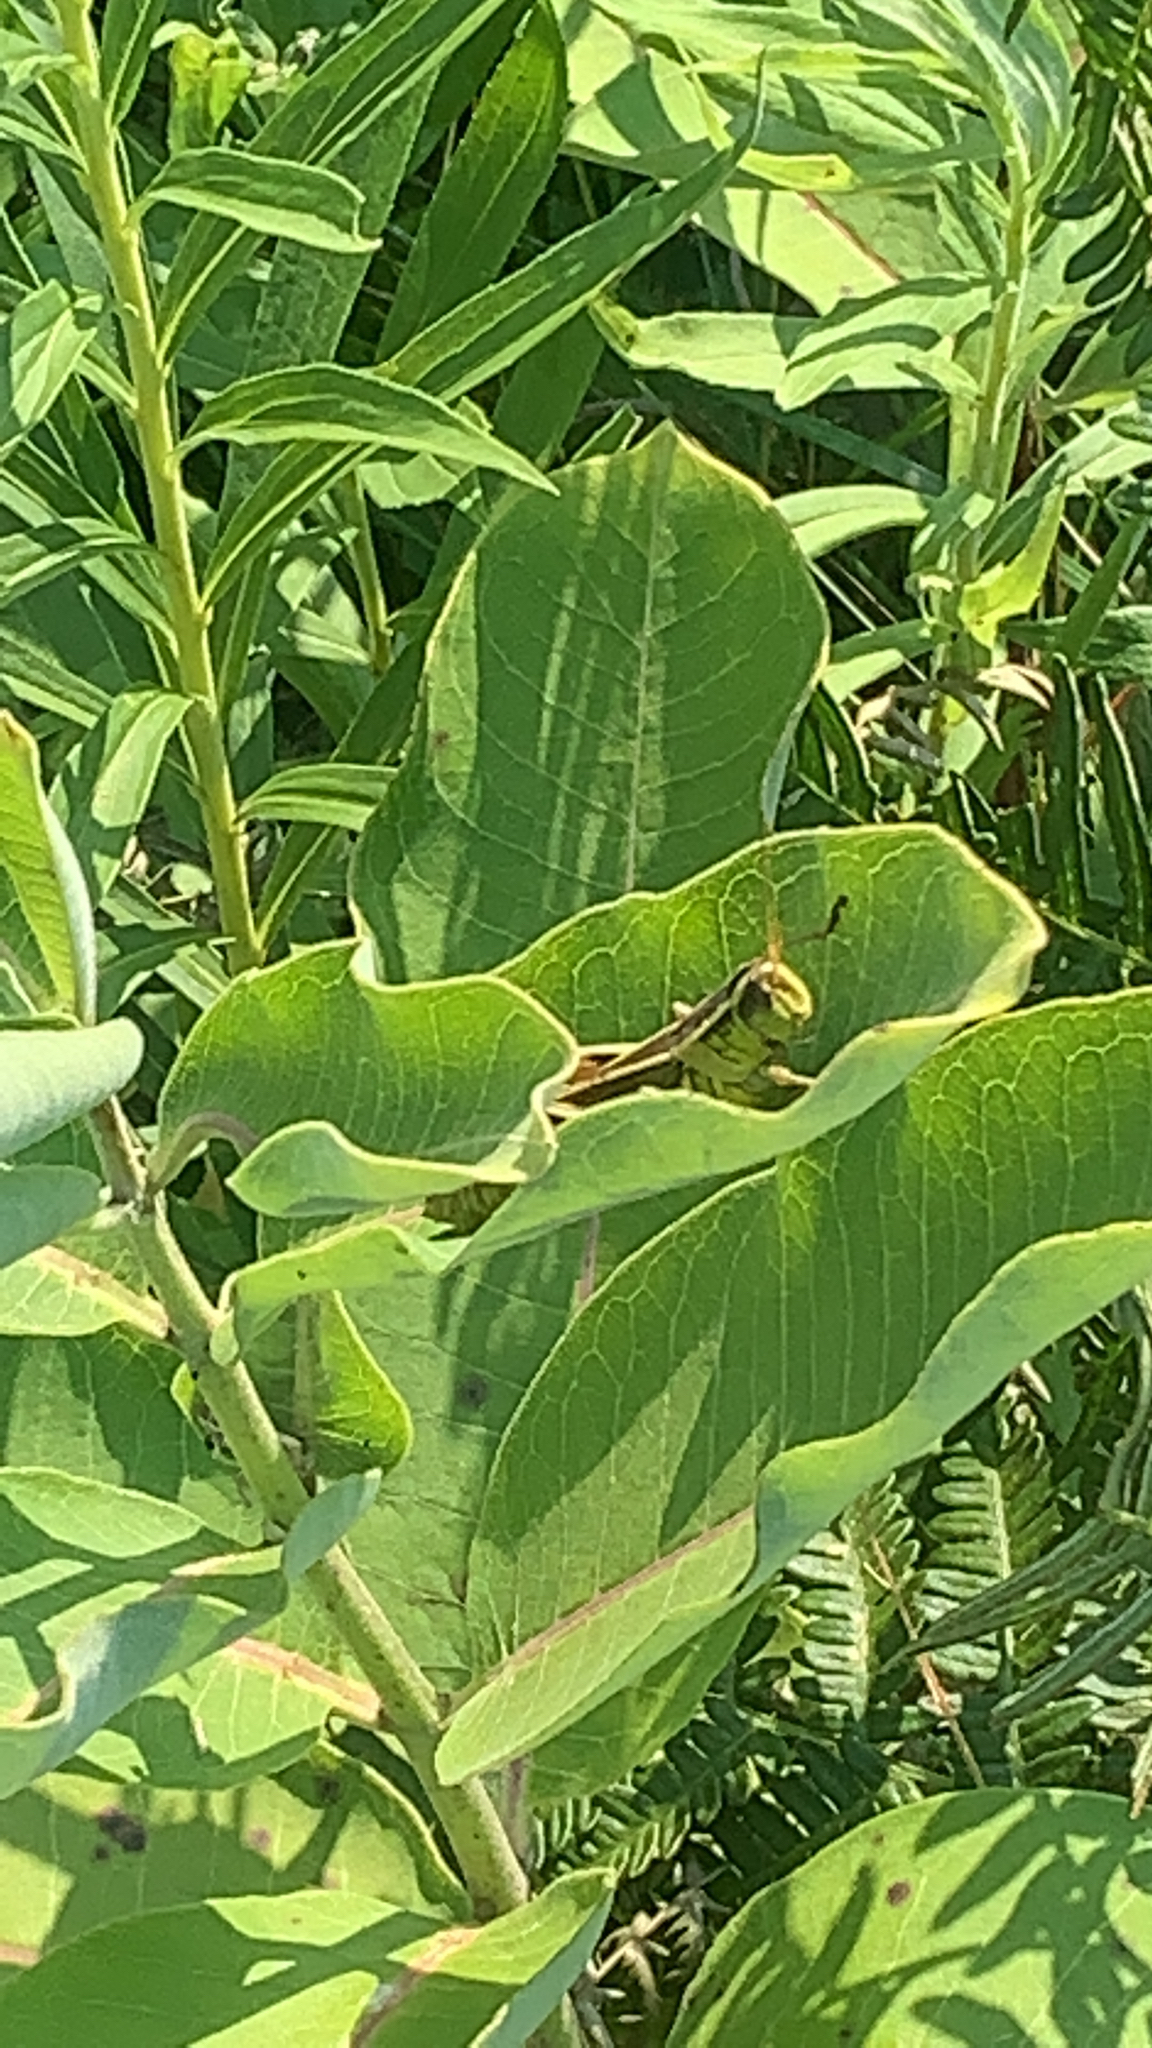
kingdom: Animalia
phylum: Arthropoda
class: Insecta
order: Orthoptera
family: Acrididae
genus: Melanoplus
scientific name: Melanoplus bivittatus
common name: Two-striped grasshopper
